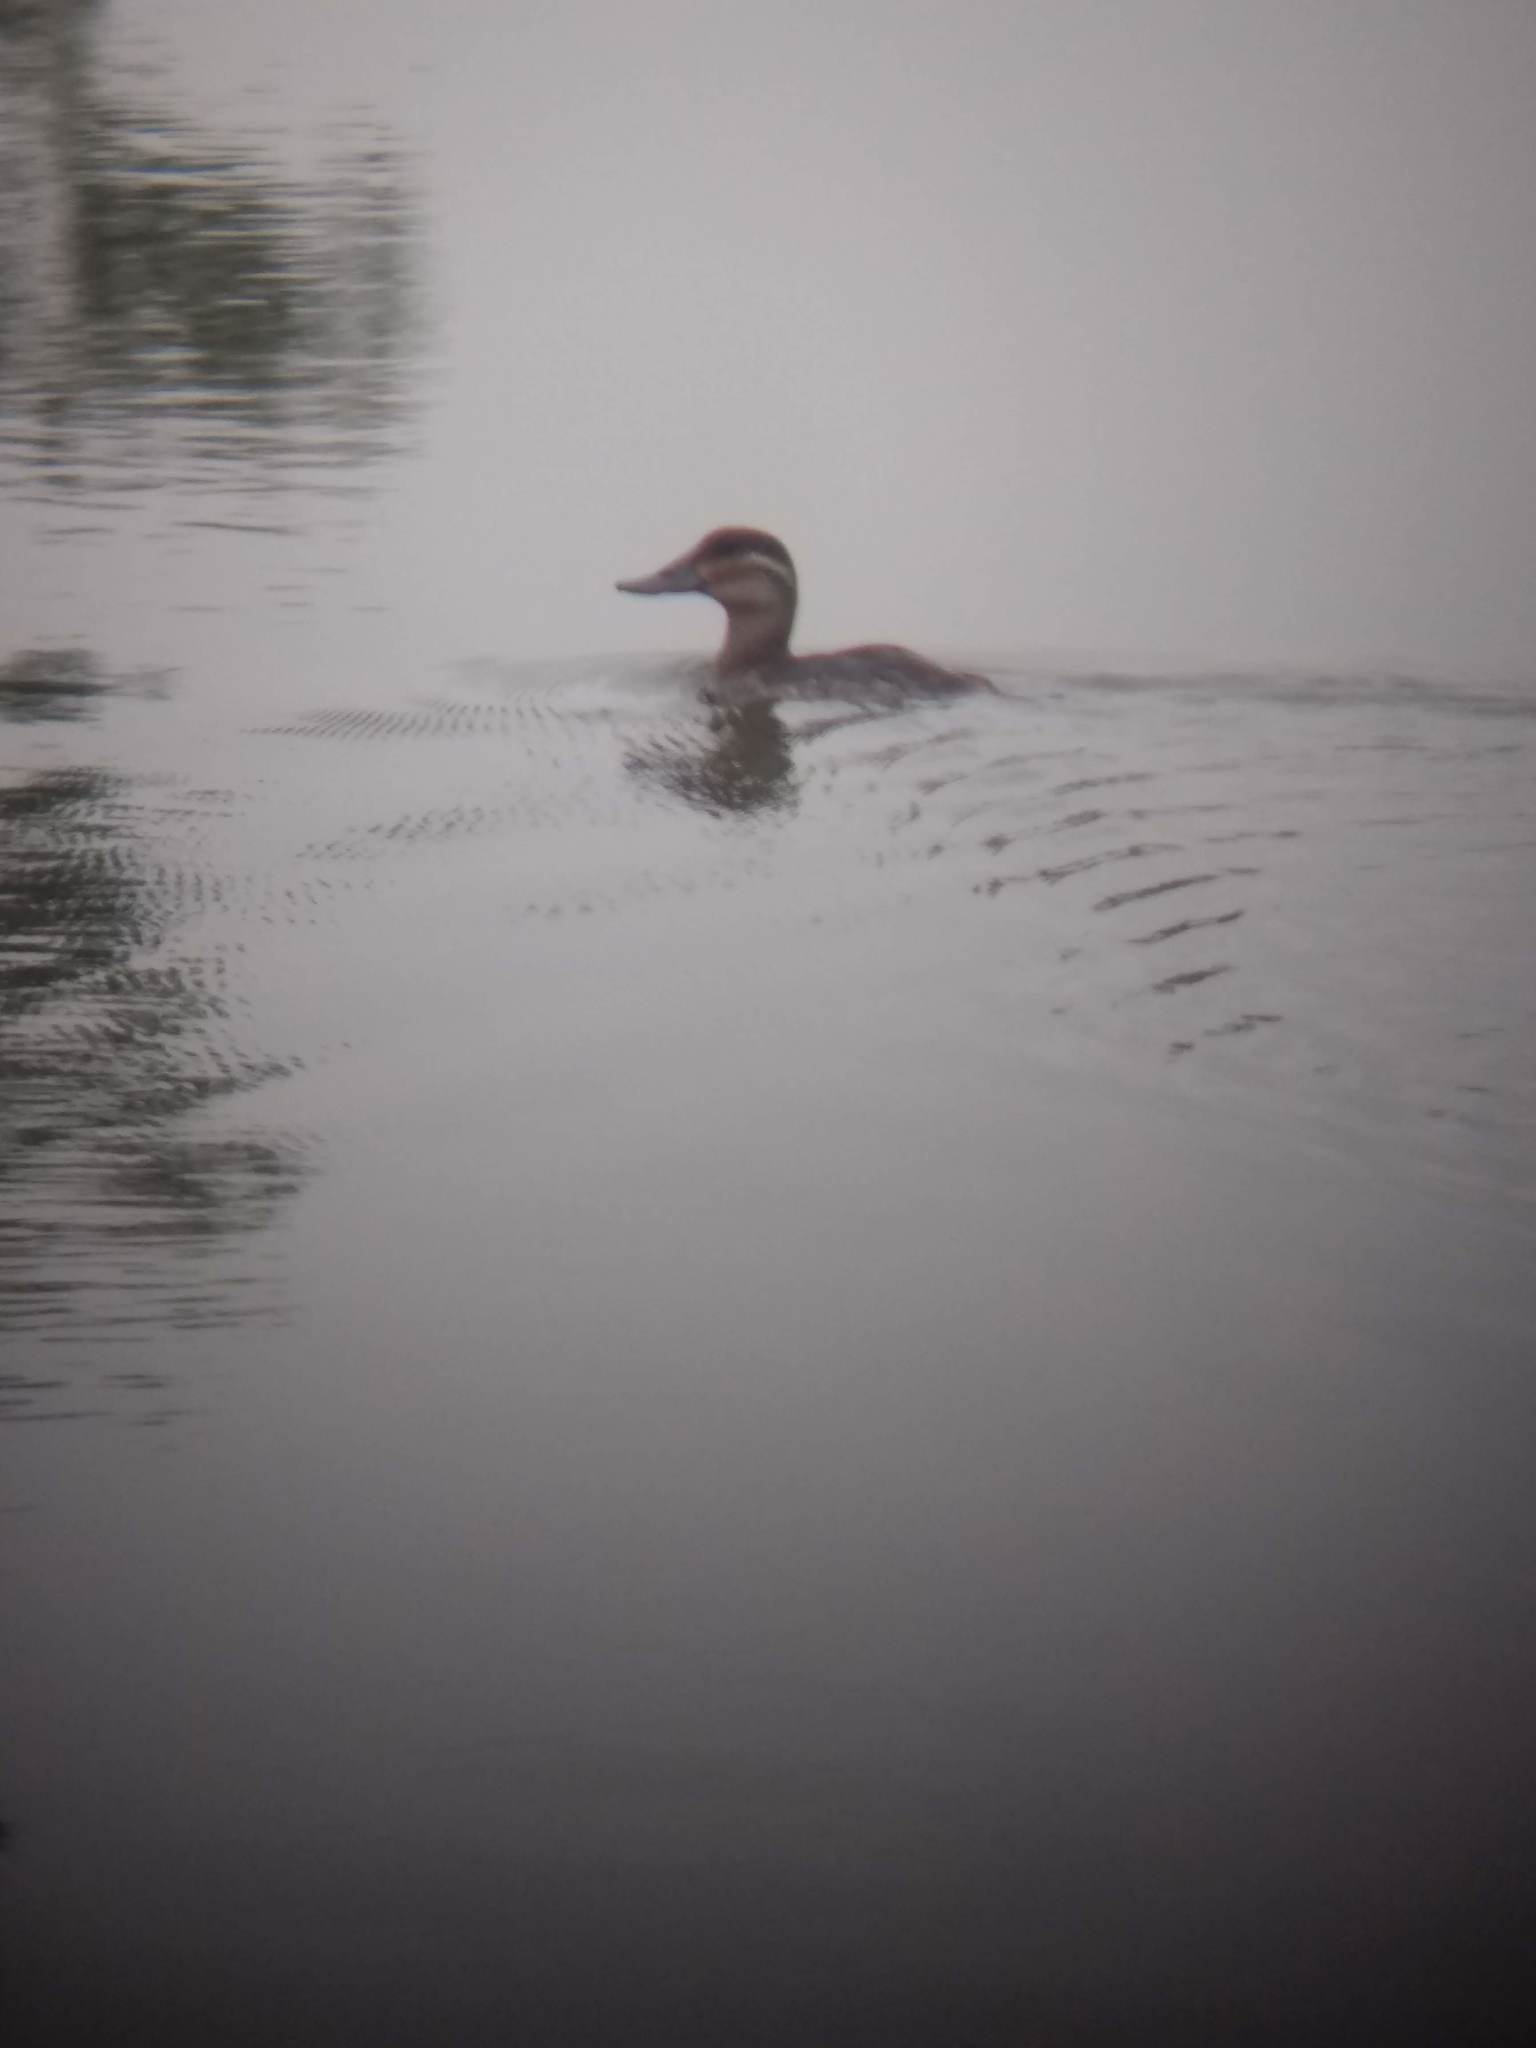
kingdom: Animalia
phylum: Chordata
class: Aves
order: Anseriformes
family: Anatidae
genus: Oxyura
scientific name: Oxyura jamaicensis
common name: Ruddy duck
